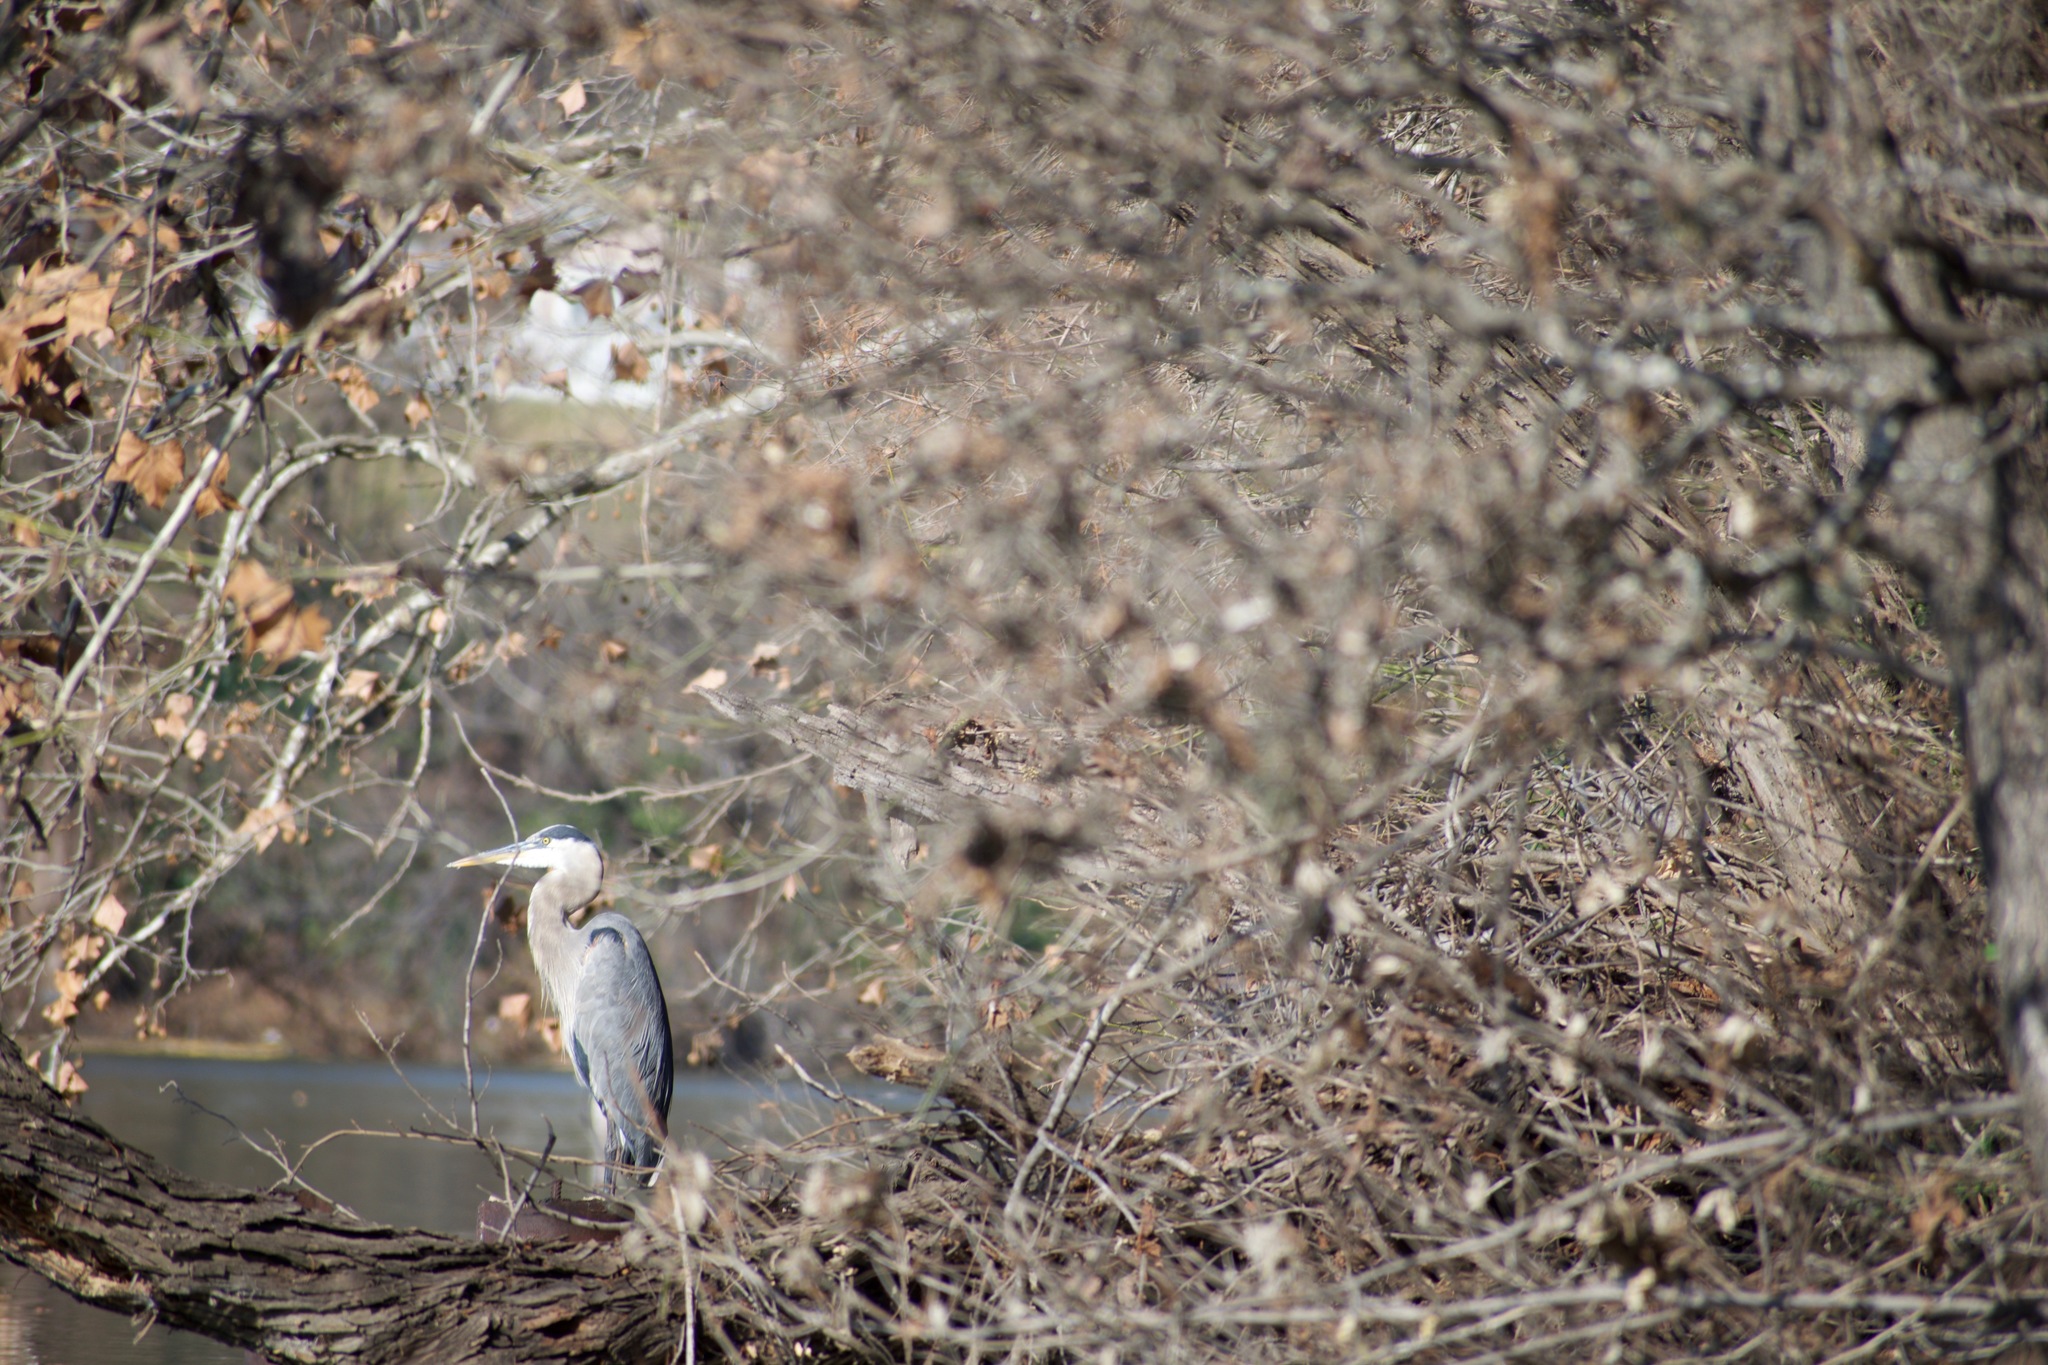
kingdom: Animalia
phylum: Chordata
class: Aves
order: Pelecaniformes
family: Ardeidae
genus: Ardea
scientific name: Ardea herodias
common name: Great blue heron
